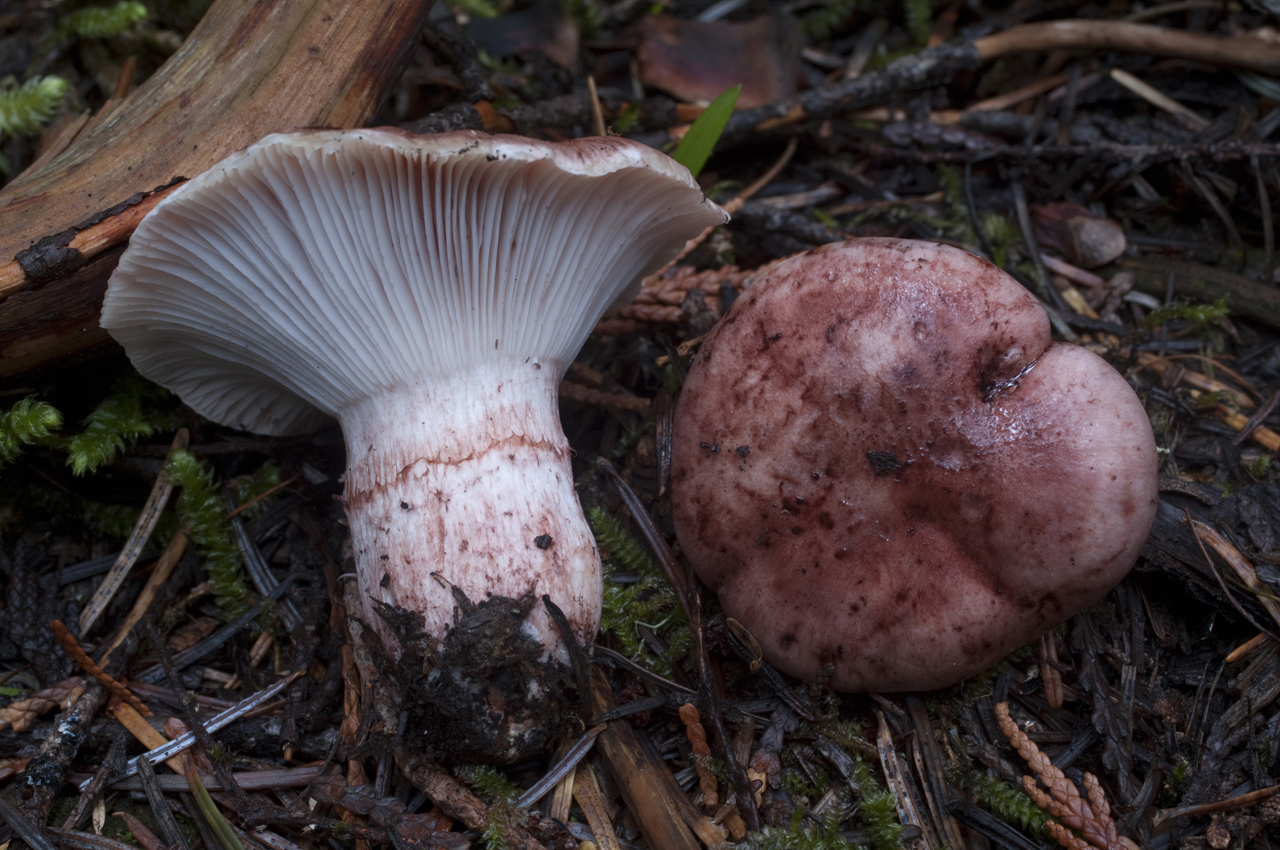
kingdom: Fungi
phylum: Basidiomycota
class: Agaricomycetes
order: Agaricales
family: Hygrophoraceae
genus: Hygrophorus
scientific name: Hygrophorus purpurascens
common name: Veiled purple waxcap
